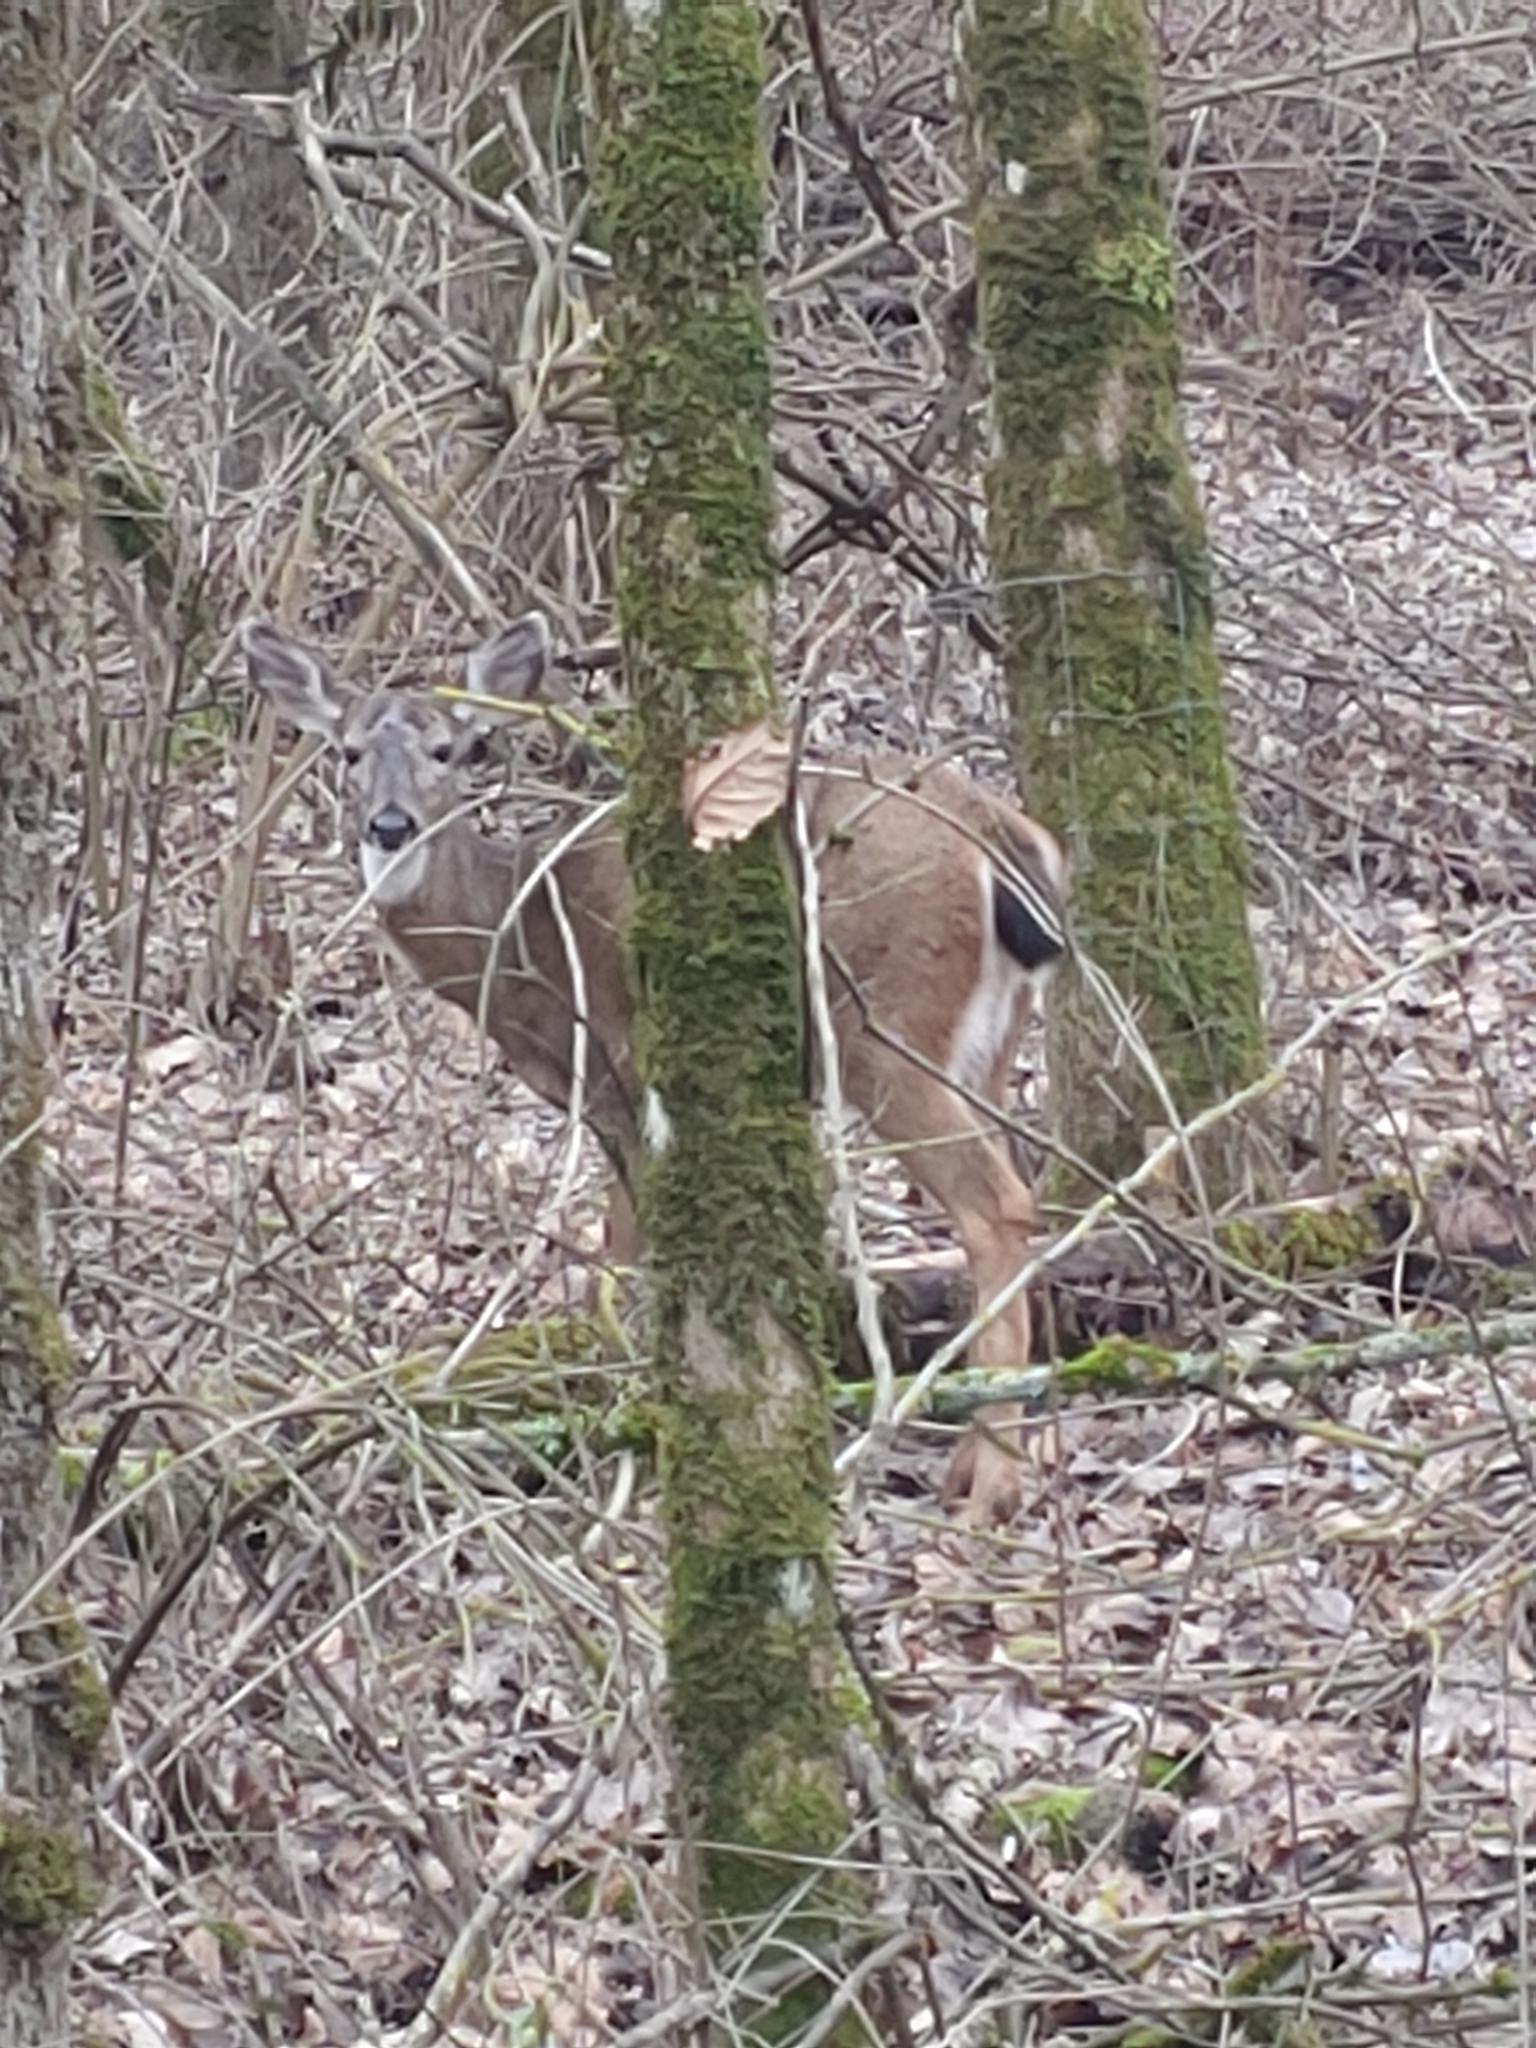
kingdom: Animalia
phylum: Chordata
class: Mammalia
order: Artiodactyla
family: Cervidae
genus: Odocoileus
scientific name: Odocoileus hemionus
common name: Mule deer
